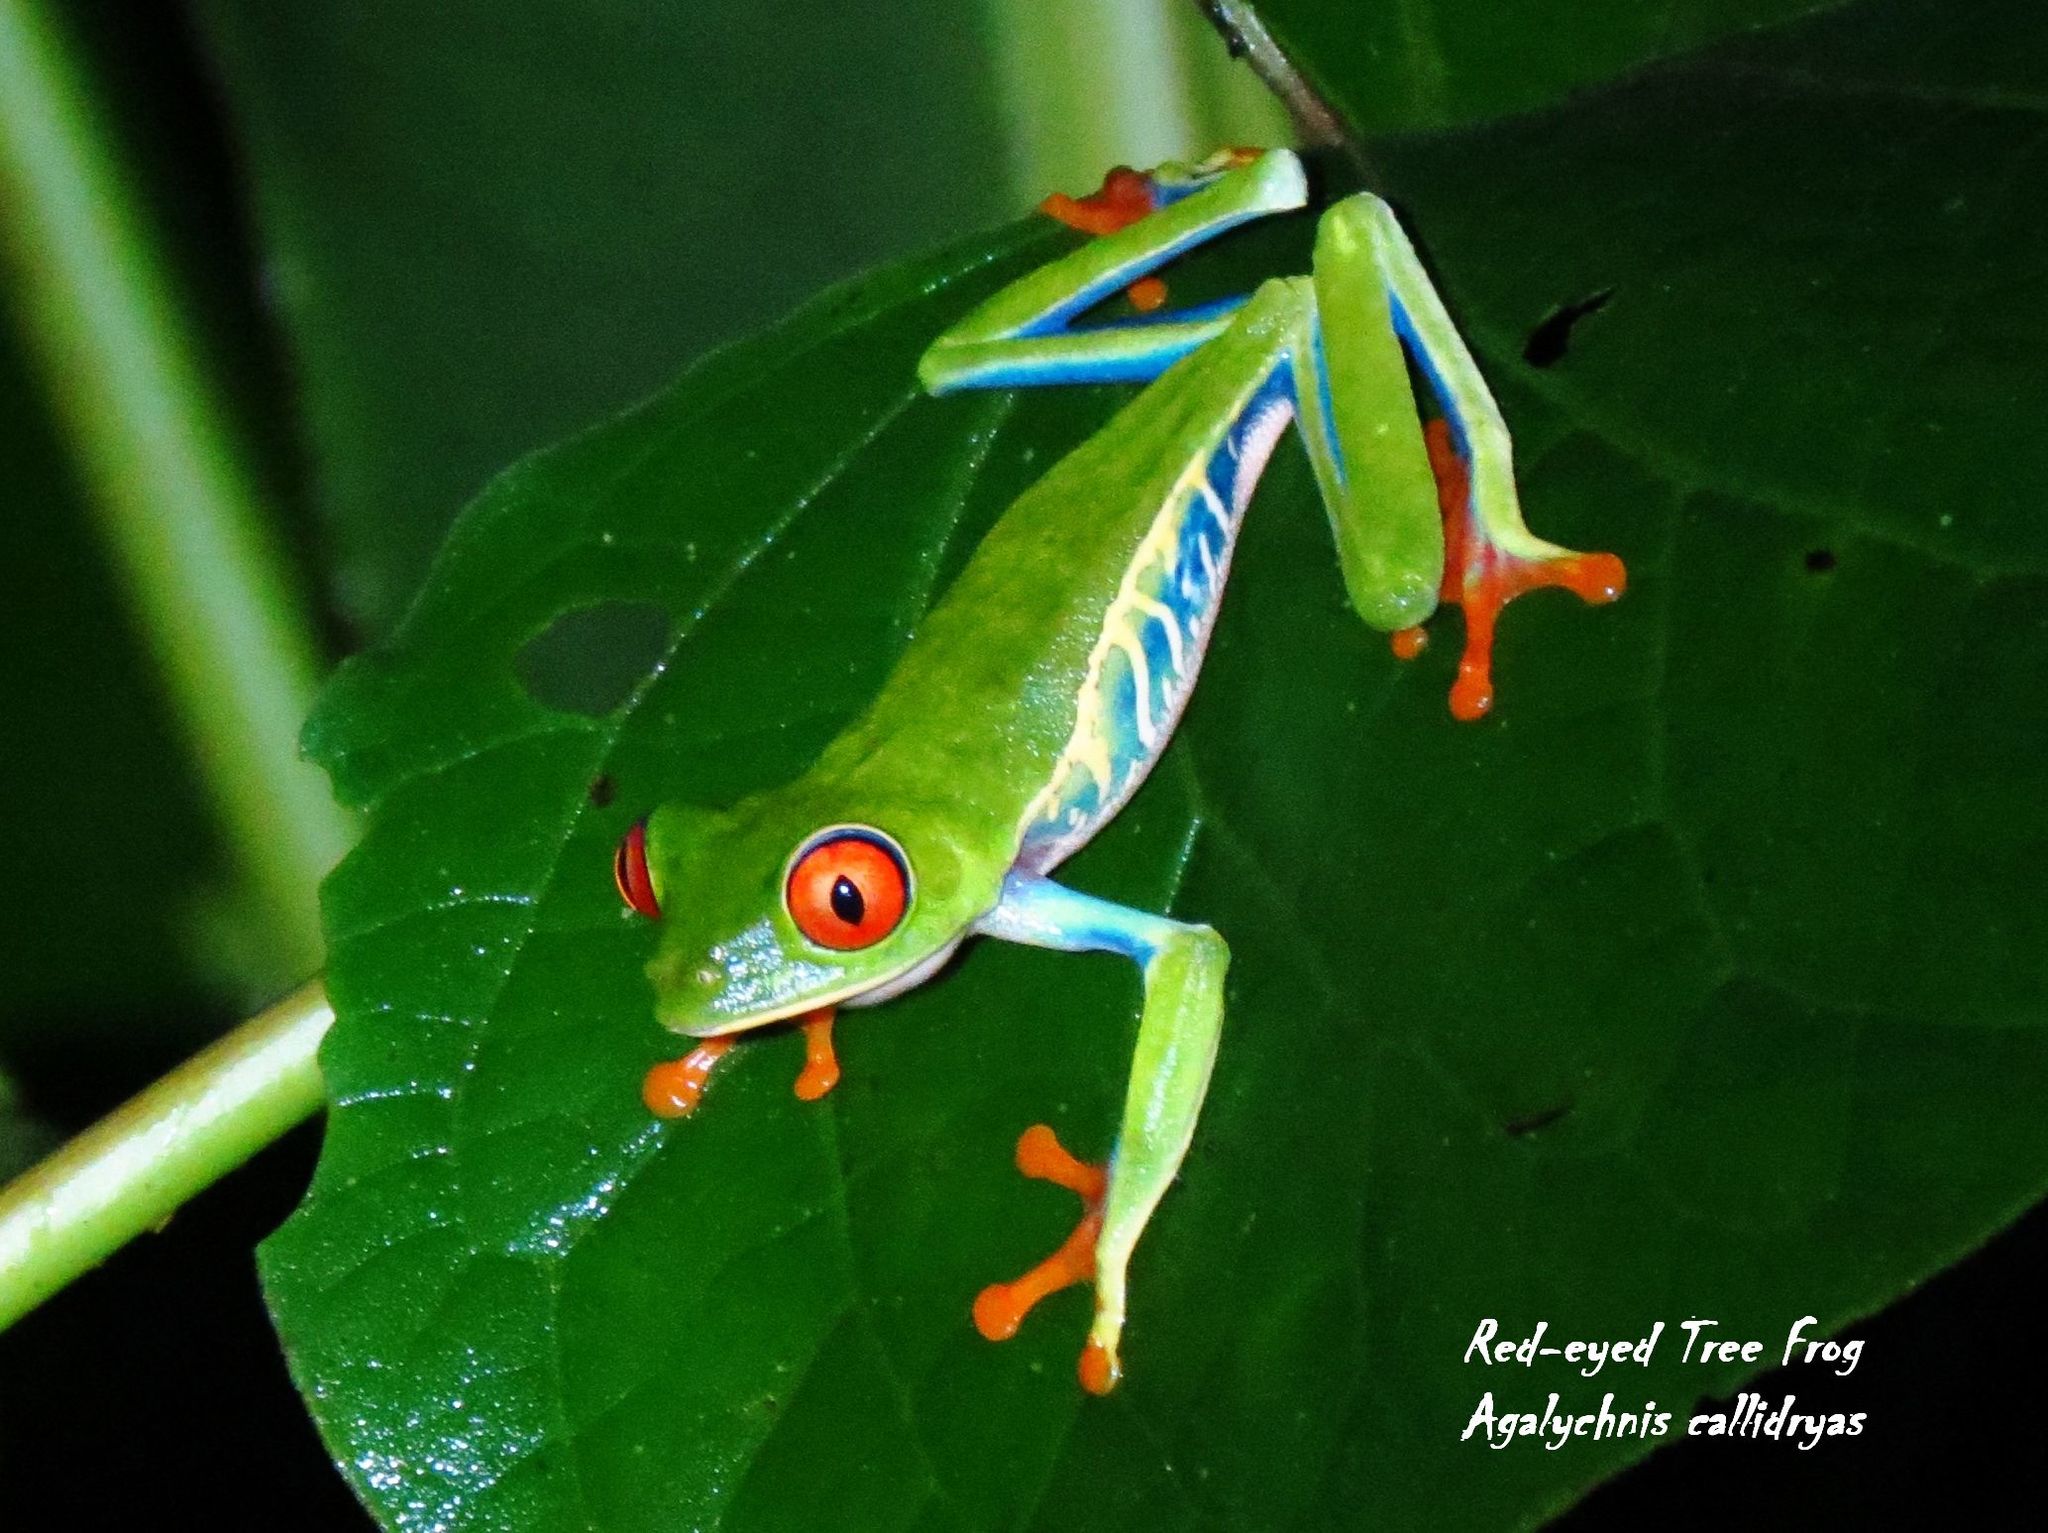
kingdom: Animalia
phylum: Chordata
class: Amphibia
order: Anura
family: Phyllomedusidae
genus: Agalychnis
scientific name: Agalychnis callidryas
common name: Red-eyed treefrog
